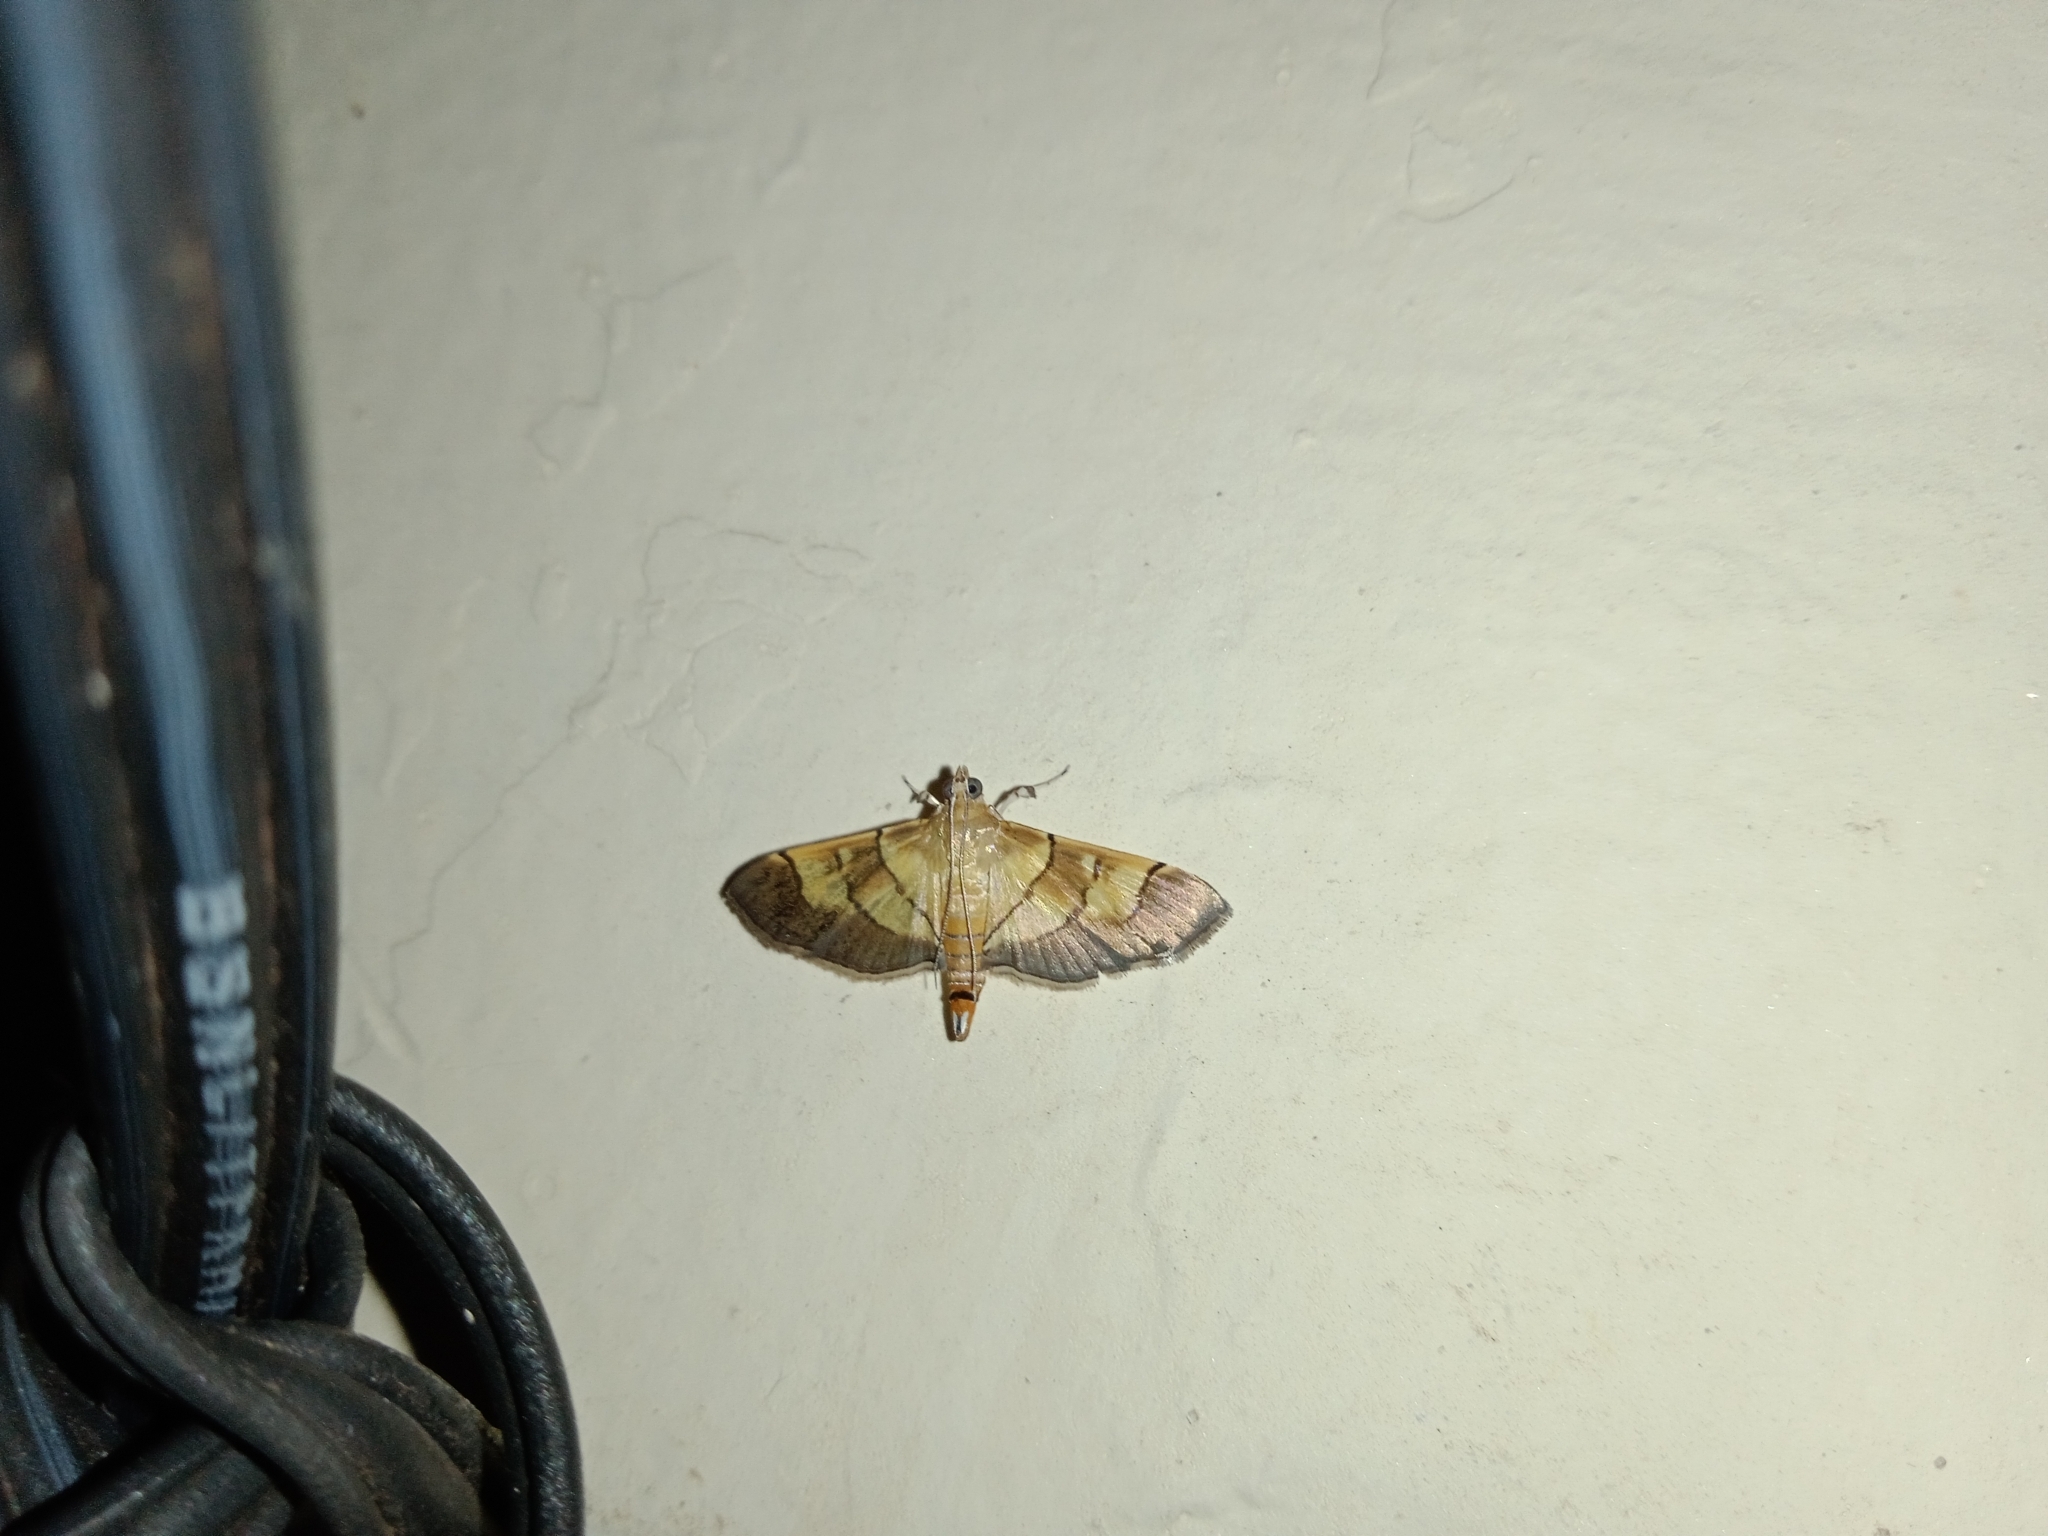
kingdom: Animalia
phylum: Arthropoda
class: Insecta
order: Lepidoptera
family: Crambidae
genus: Syngamia
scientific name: Syngamia latimarginalis
